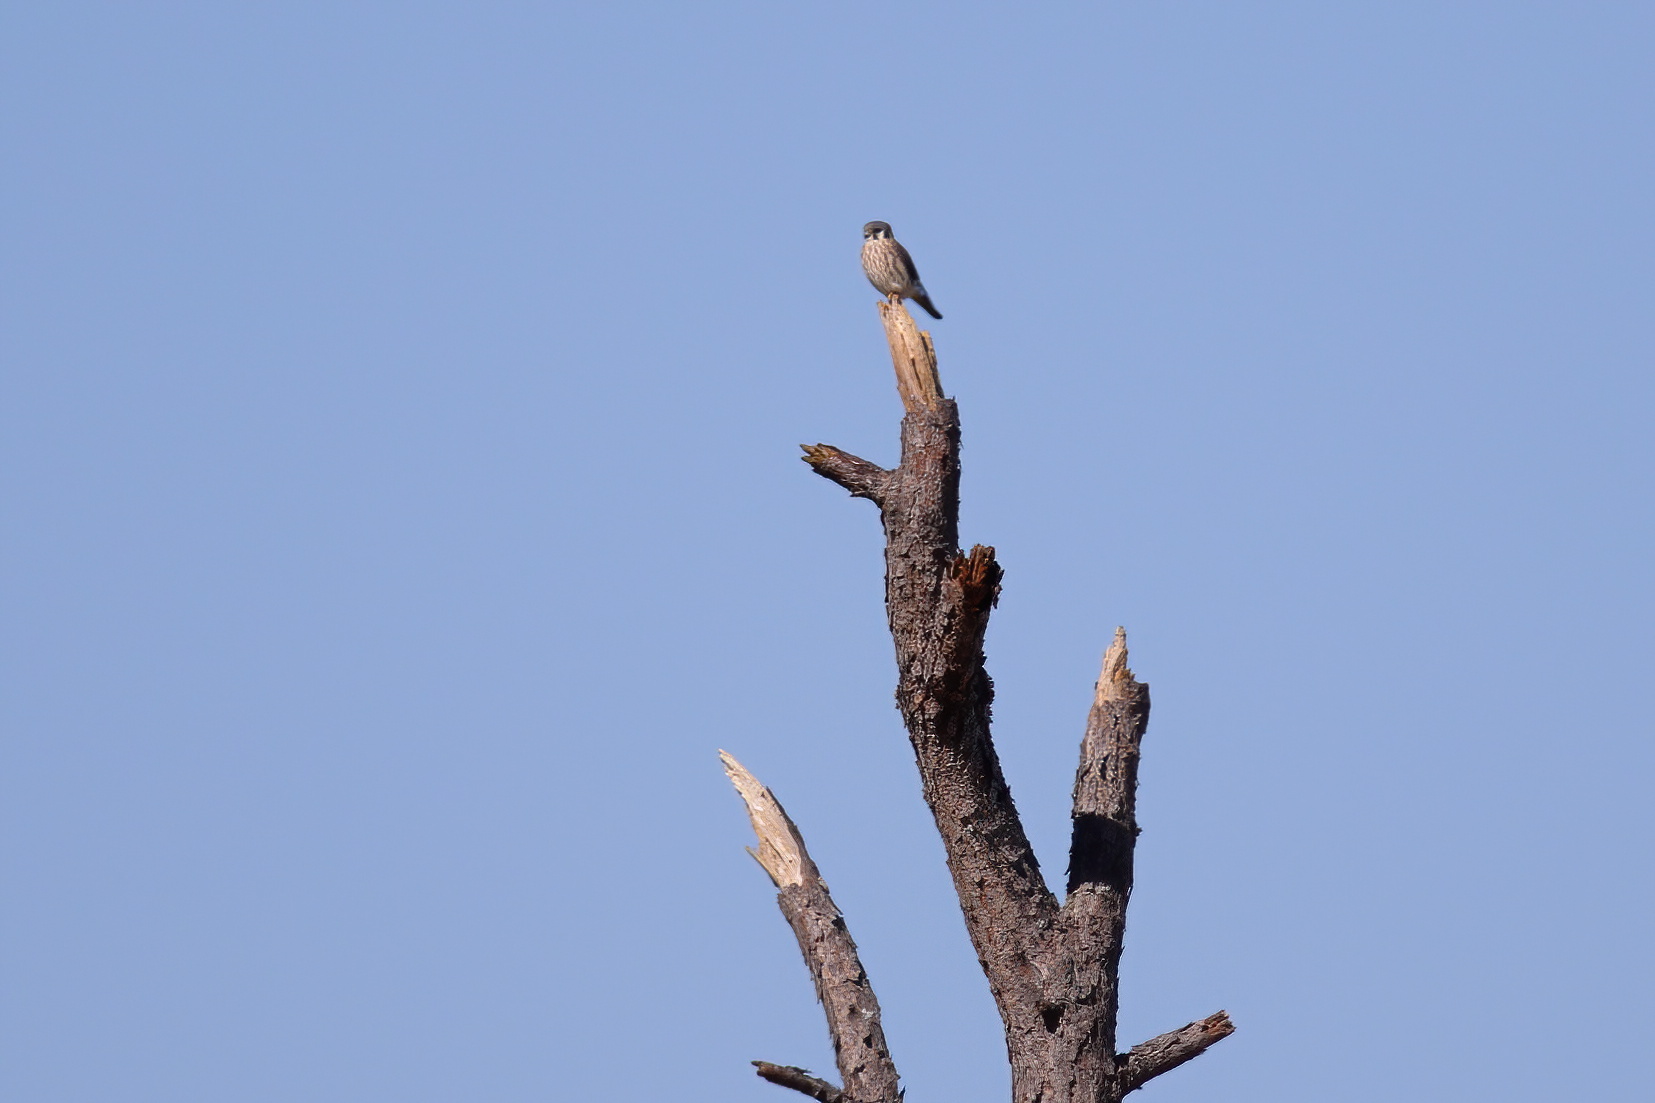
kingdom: Animalia
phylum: Chordata
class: Aves
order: Falconiformes
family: Falconidae
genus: Falco
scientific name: Falco sparverius
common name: American kestrel
